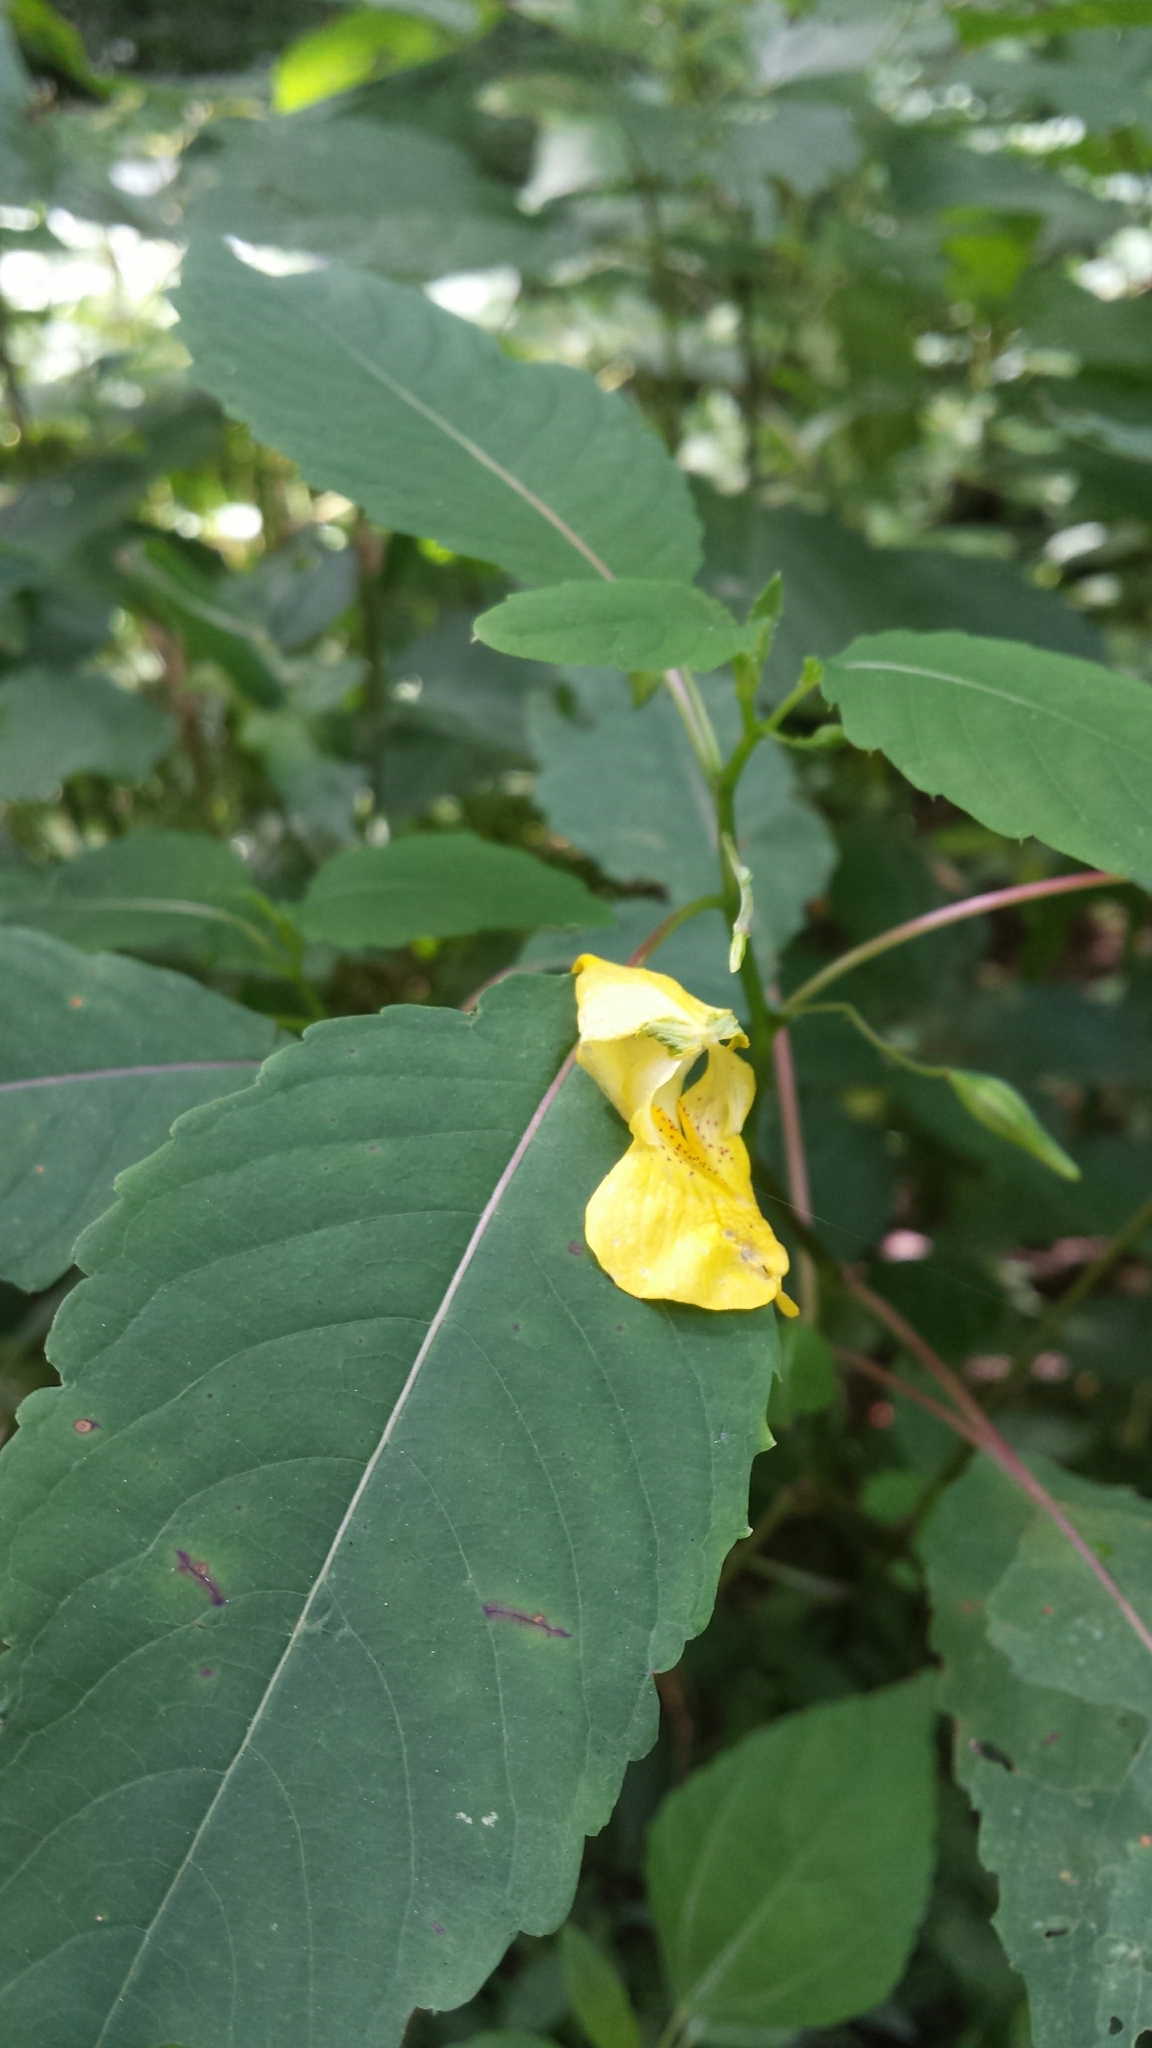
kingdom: Plantae
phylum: Tracheophyta
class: Magnoliopsida
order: Ericales
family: Balsaminaceae
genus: Impatiens
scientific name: Impatiens pallida
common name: Pale snapweed
